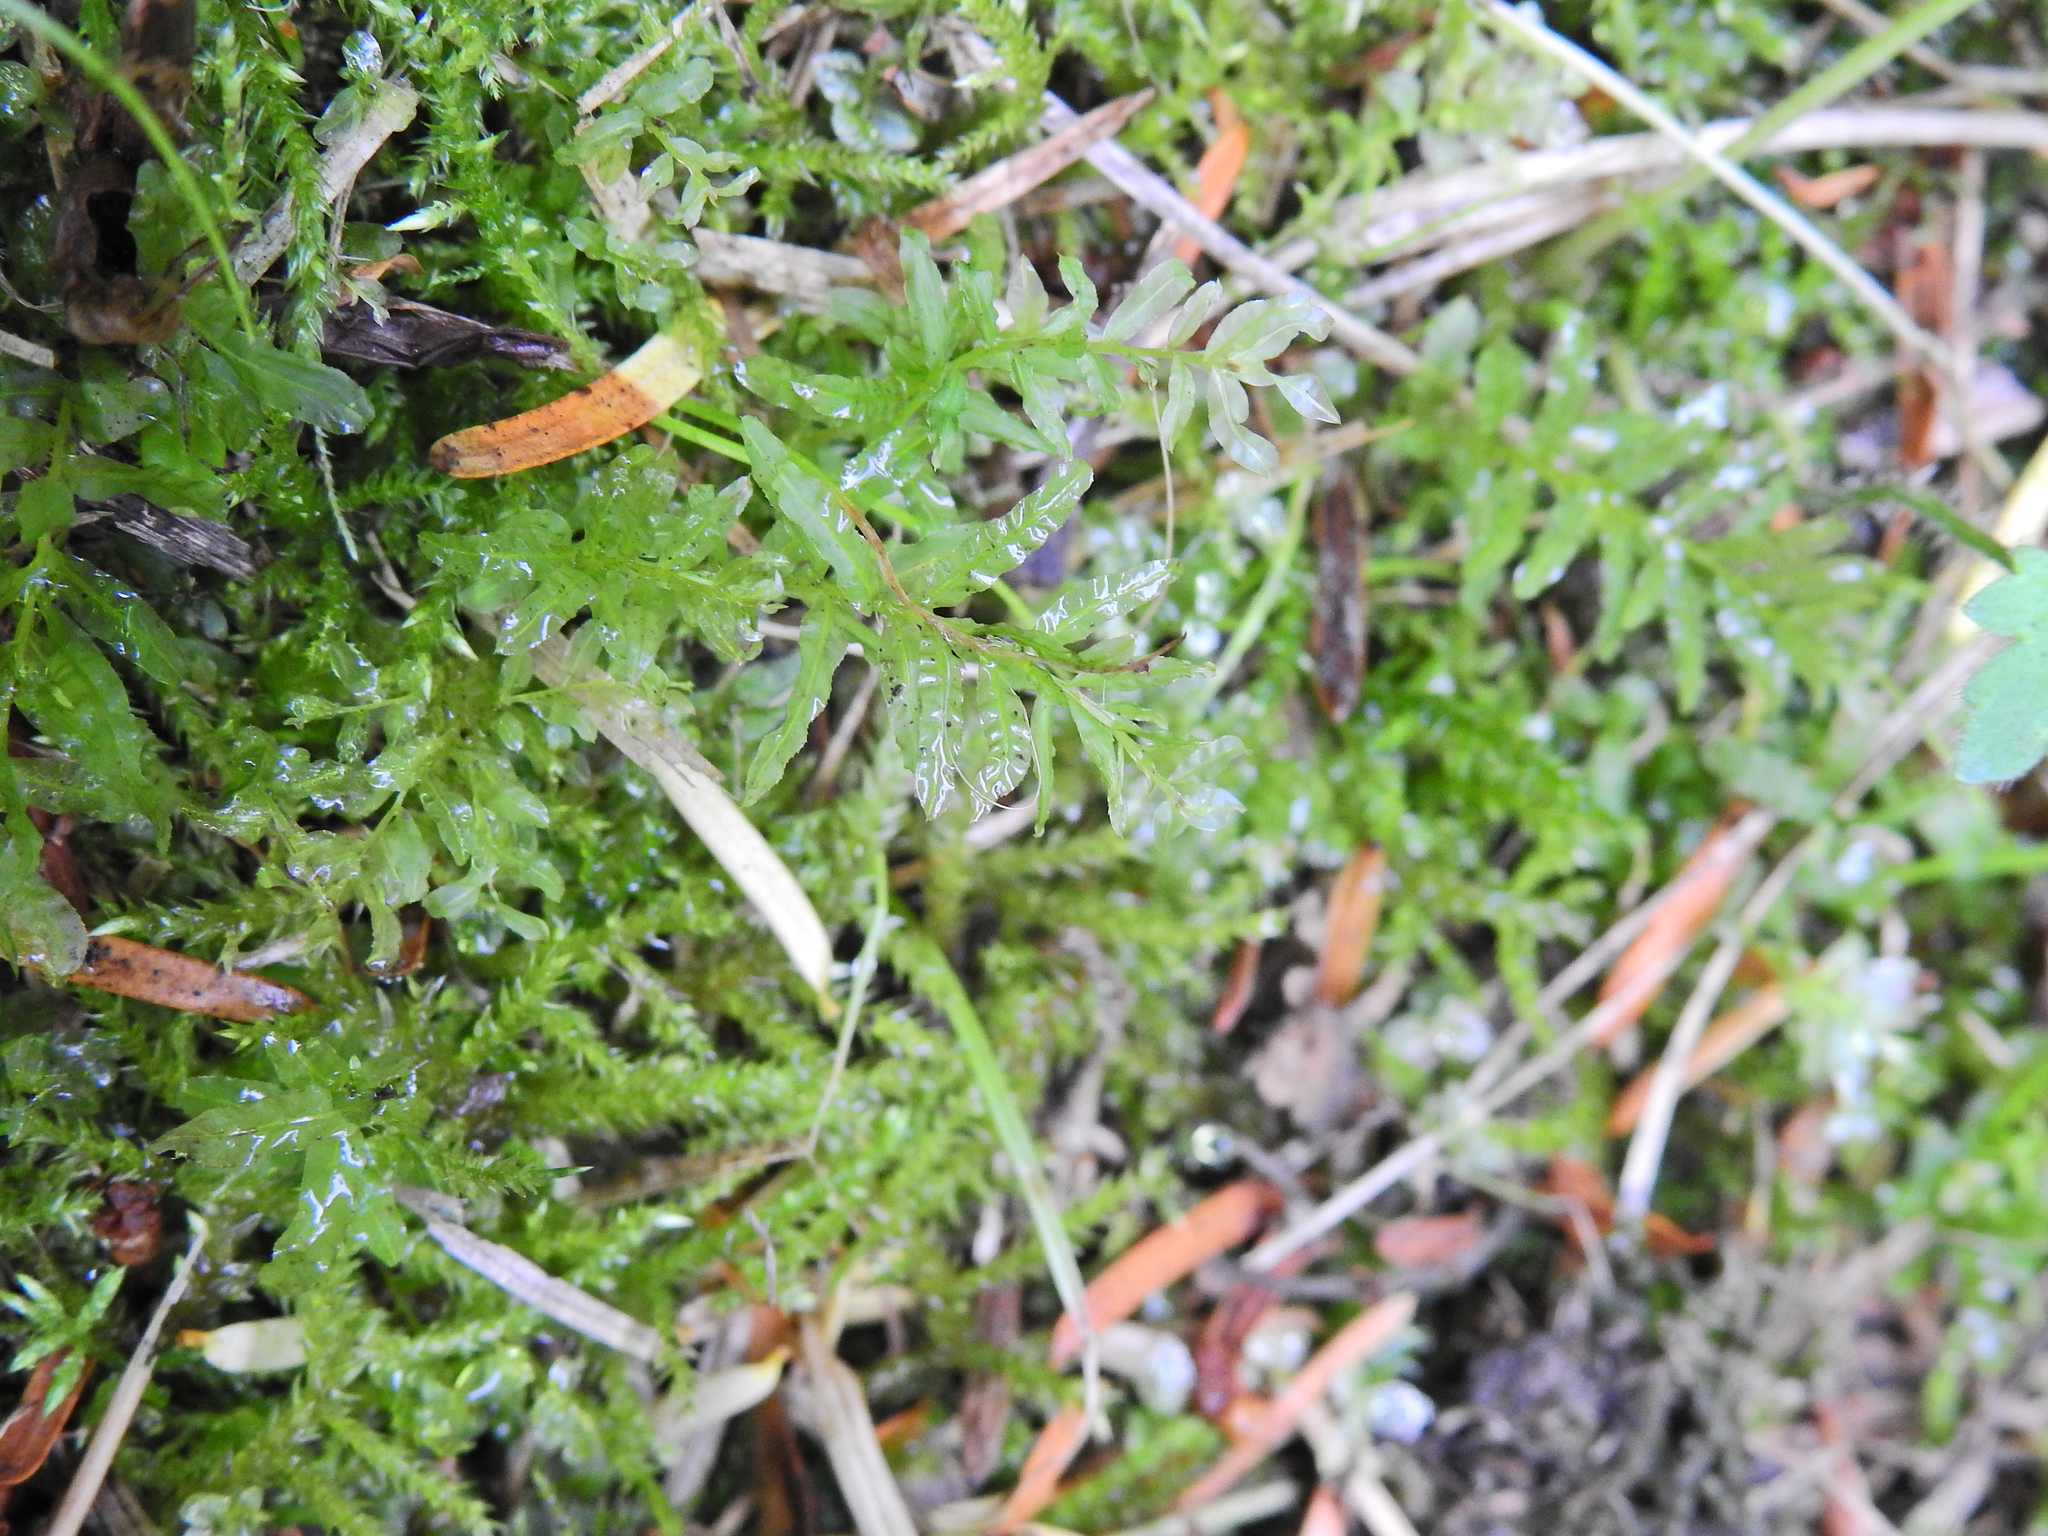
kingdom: Plantae
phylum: Bryophyta
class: Bryopsida
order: Bryales
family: Mniaceae
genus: Plagiomnium
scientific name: Plagiomnium undulatum
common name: Hart's-tongue thyme-moss
